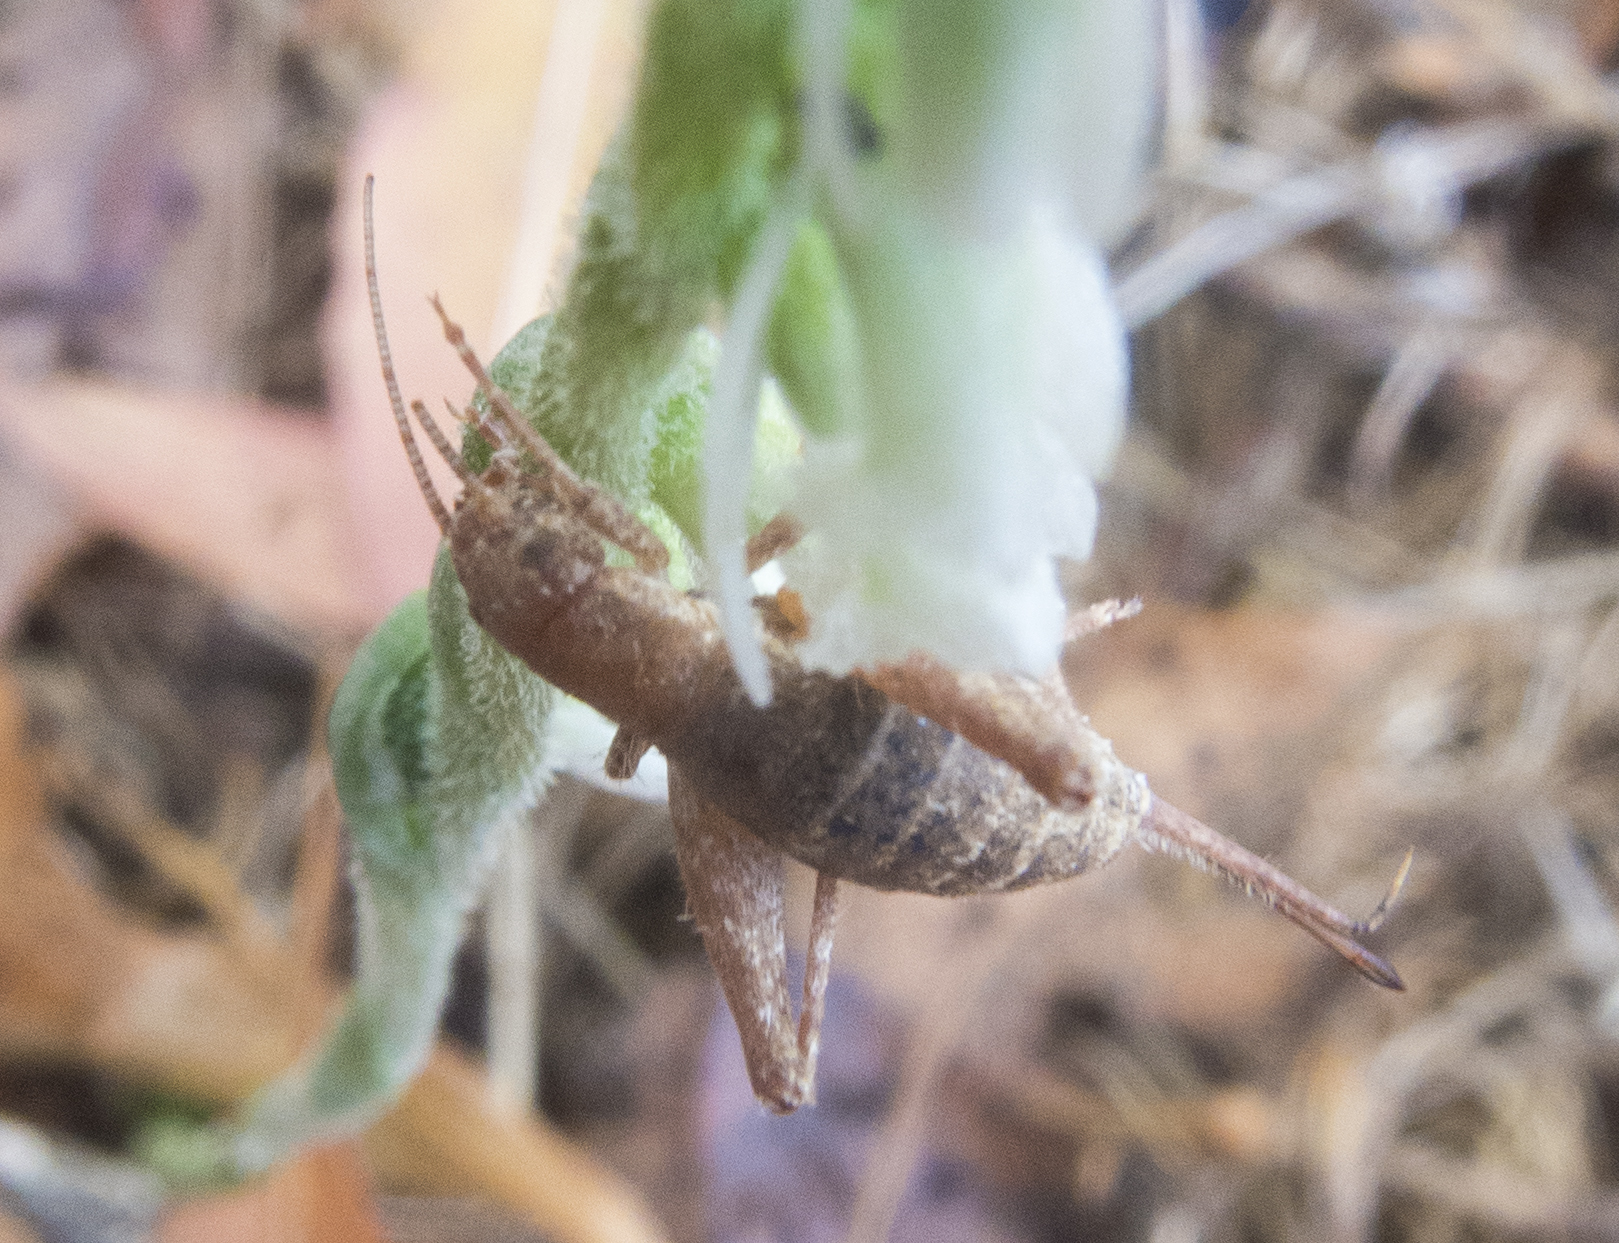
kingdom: Animalia
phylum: Arthropoda
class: Insecta
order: Orthoptera
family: Mogoplistidae
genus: Arachnocephalus
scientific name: Arachnocephalus vestitus
